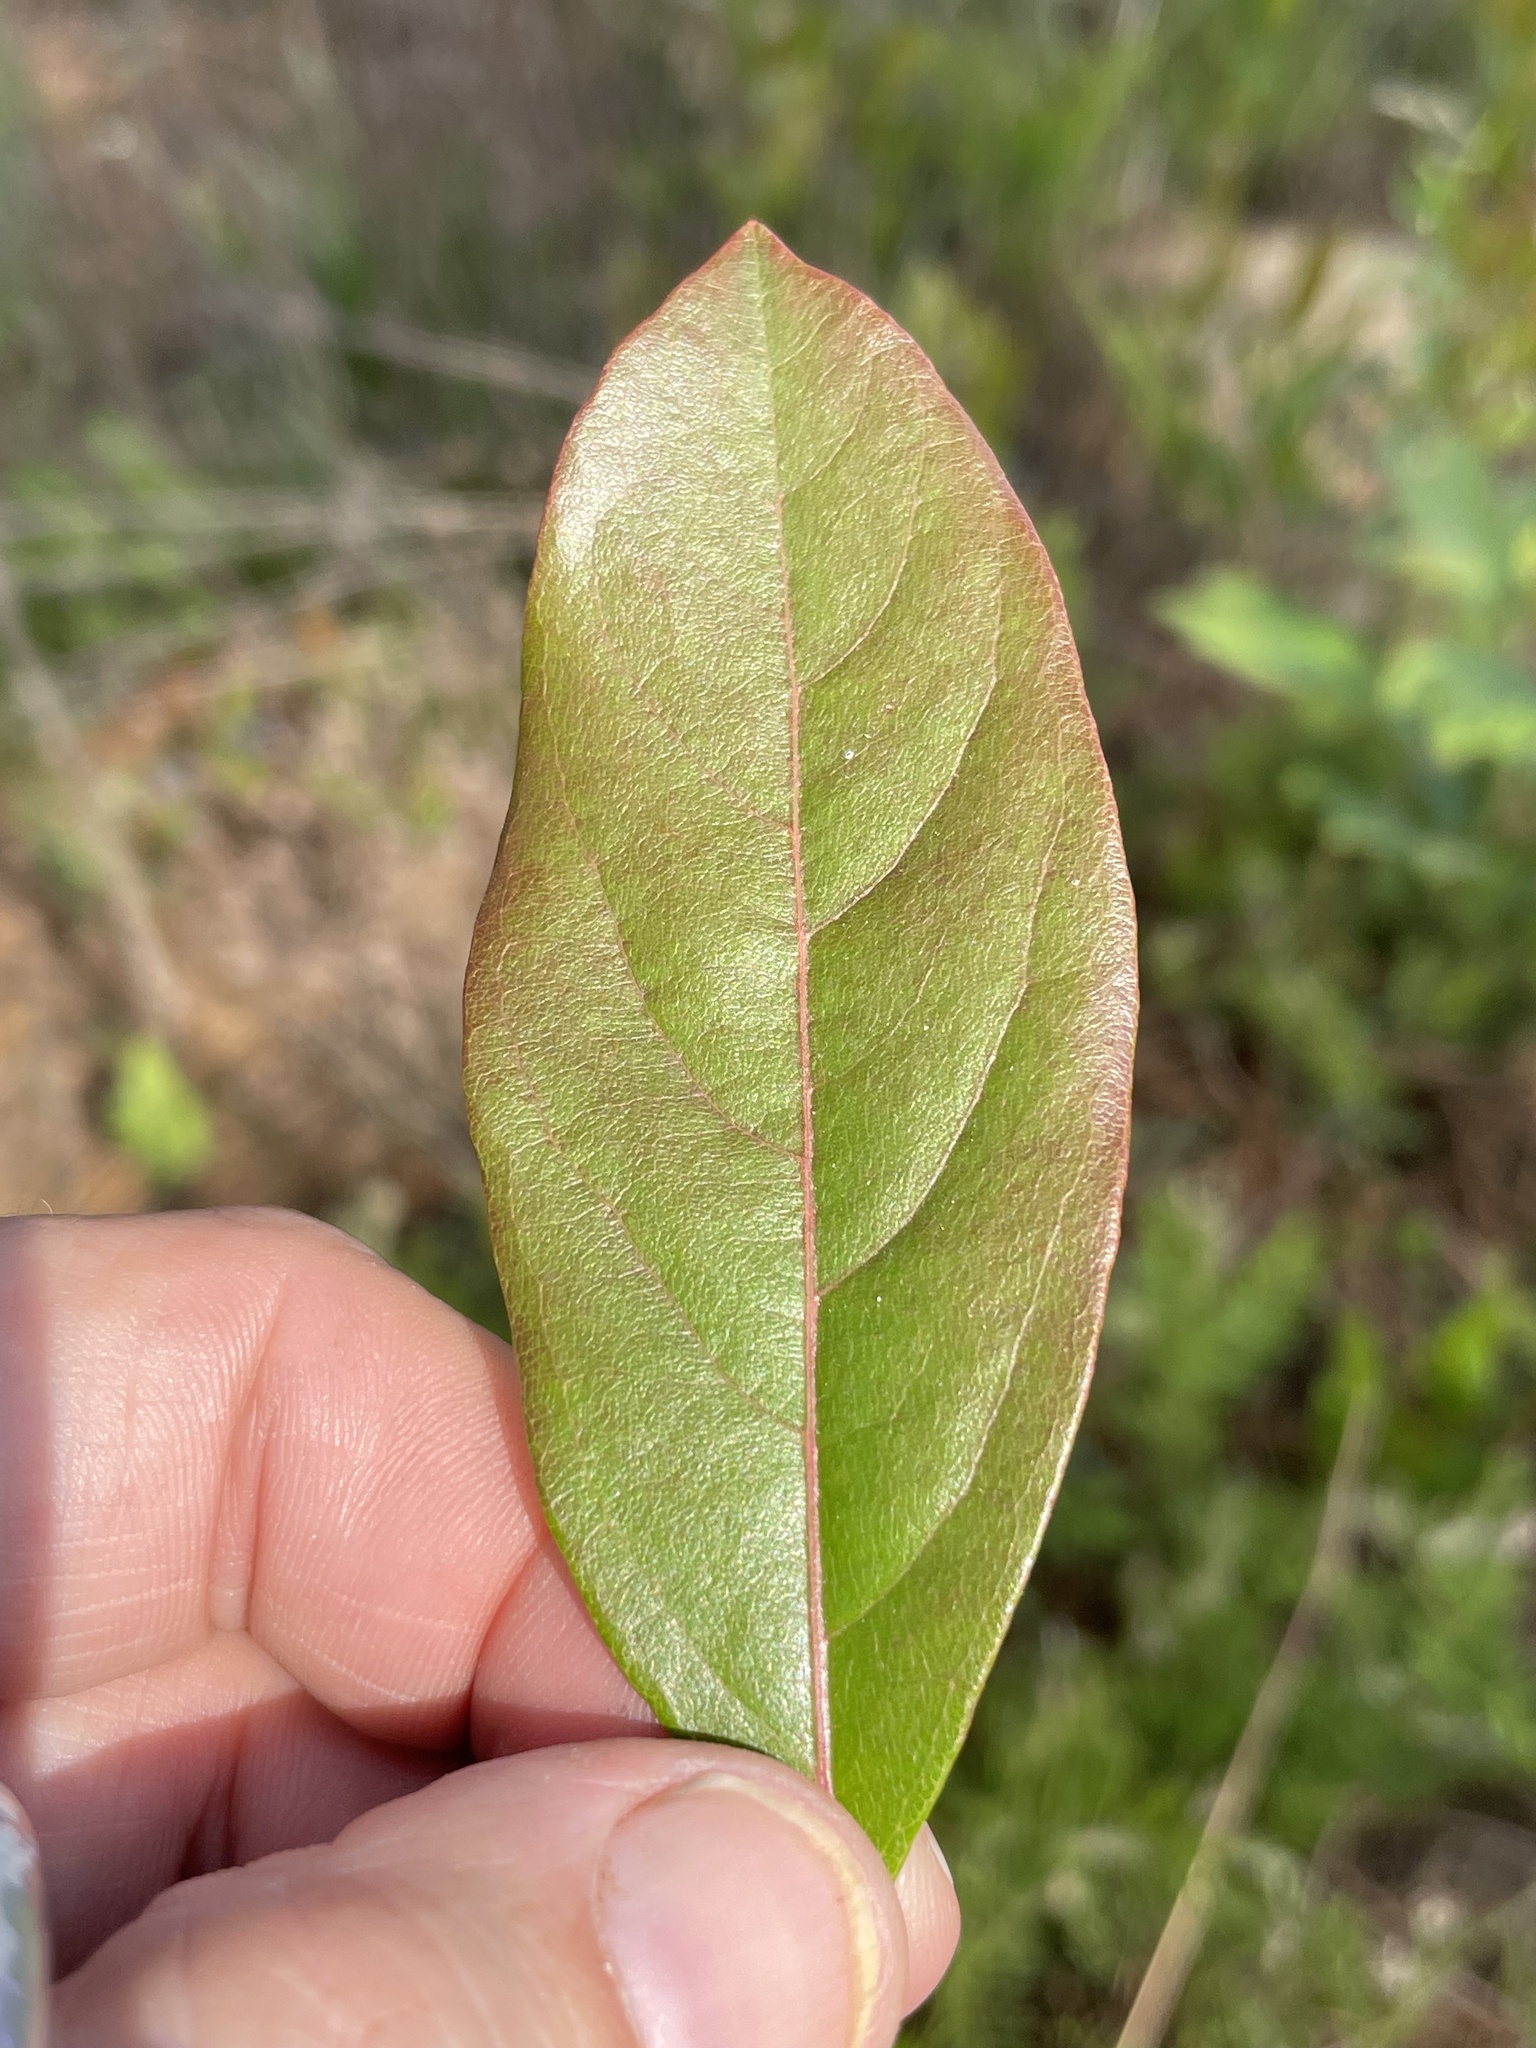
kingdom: Plantae
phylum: Tracheophyta
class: Magnoliopsida
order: Ericales
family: Ericaceae
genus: Lyonia
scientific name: Lyonia mariana
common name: Staggerbush
